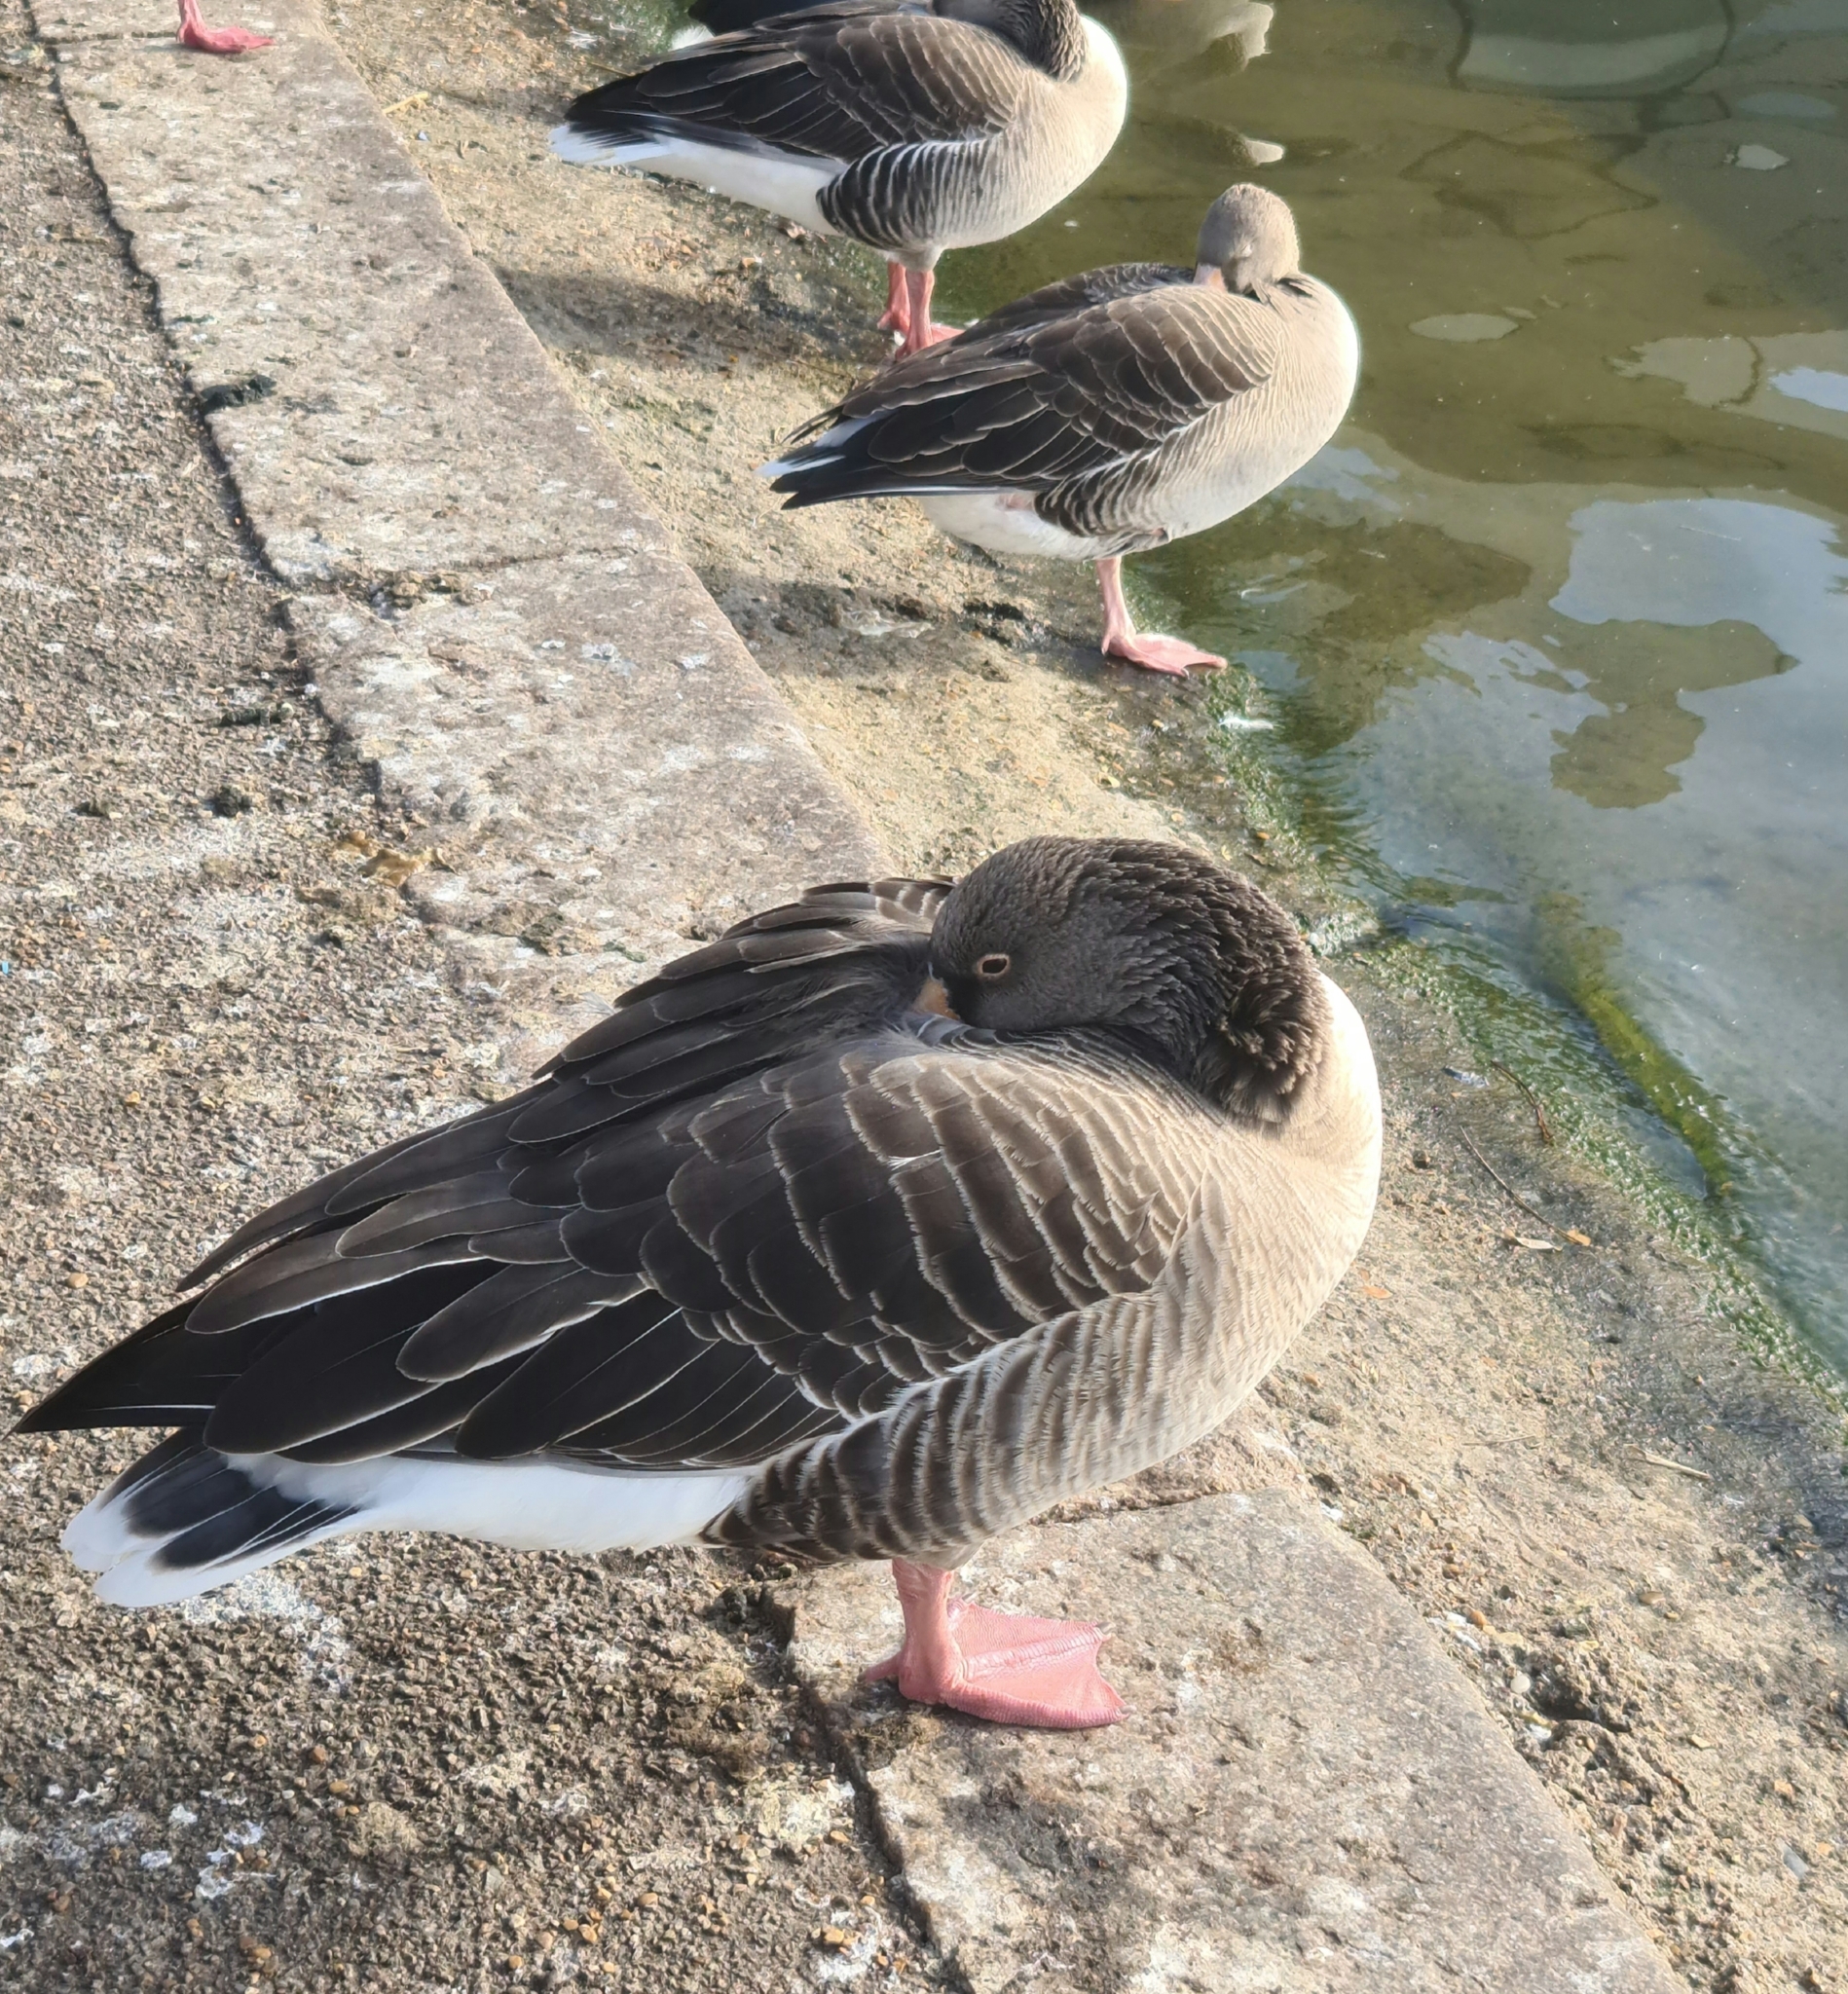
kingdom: Animalia
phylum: Chordata
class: Aves
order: Anseriformes
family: Anatidae
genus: Anser
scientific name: Anser anser
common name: Greylag goose
